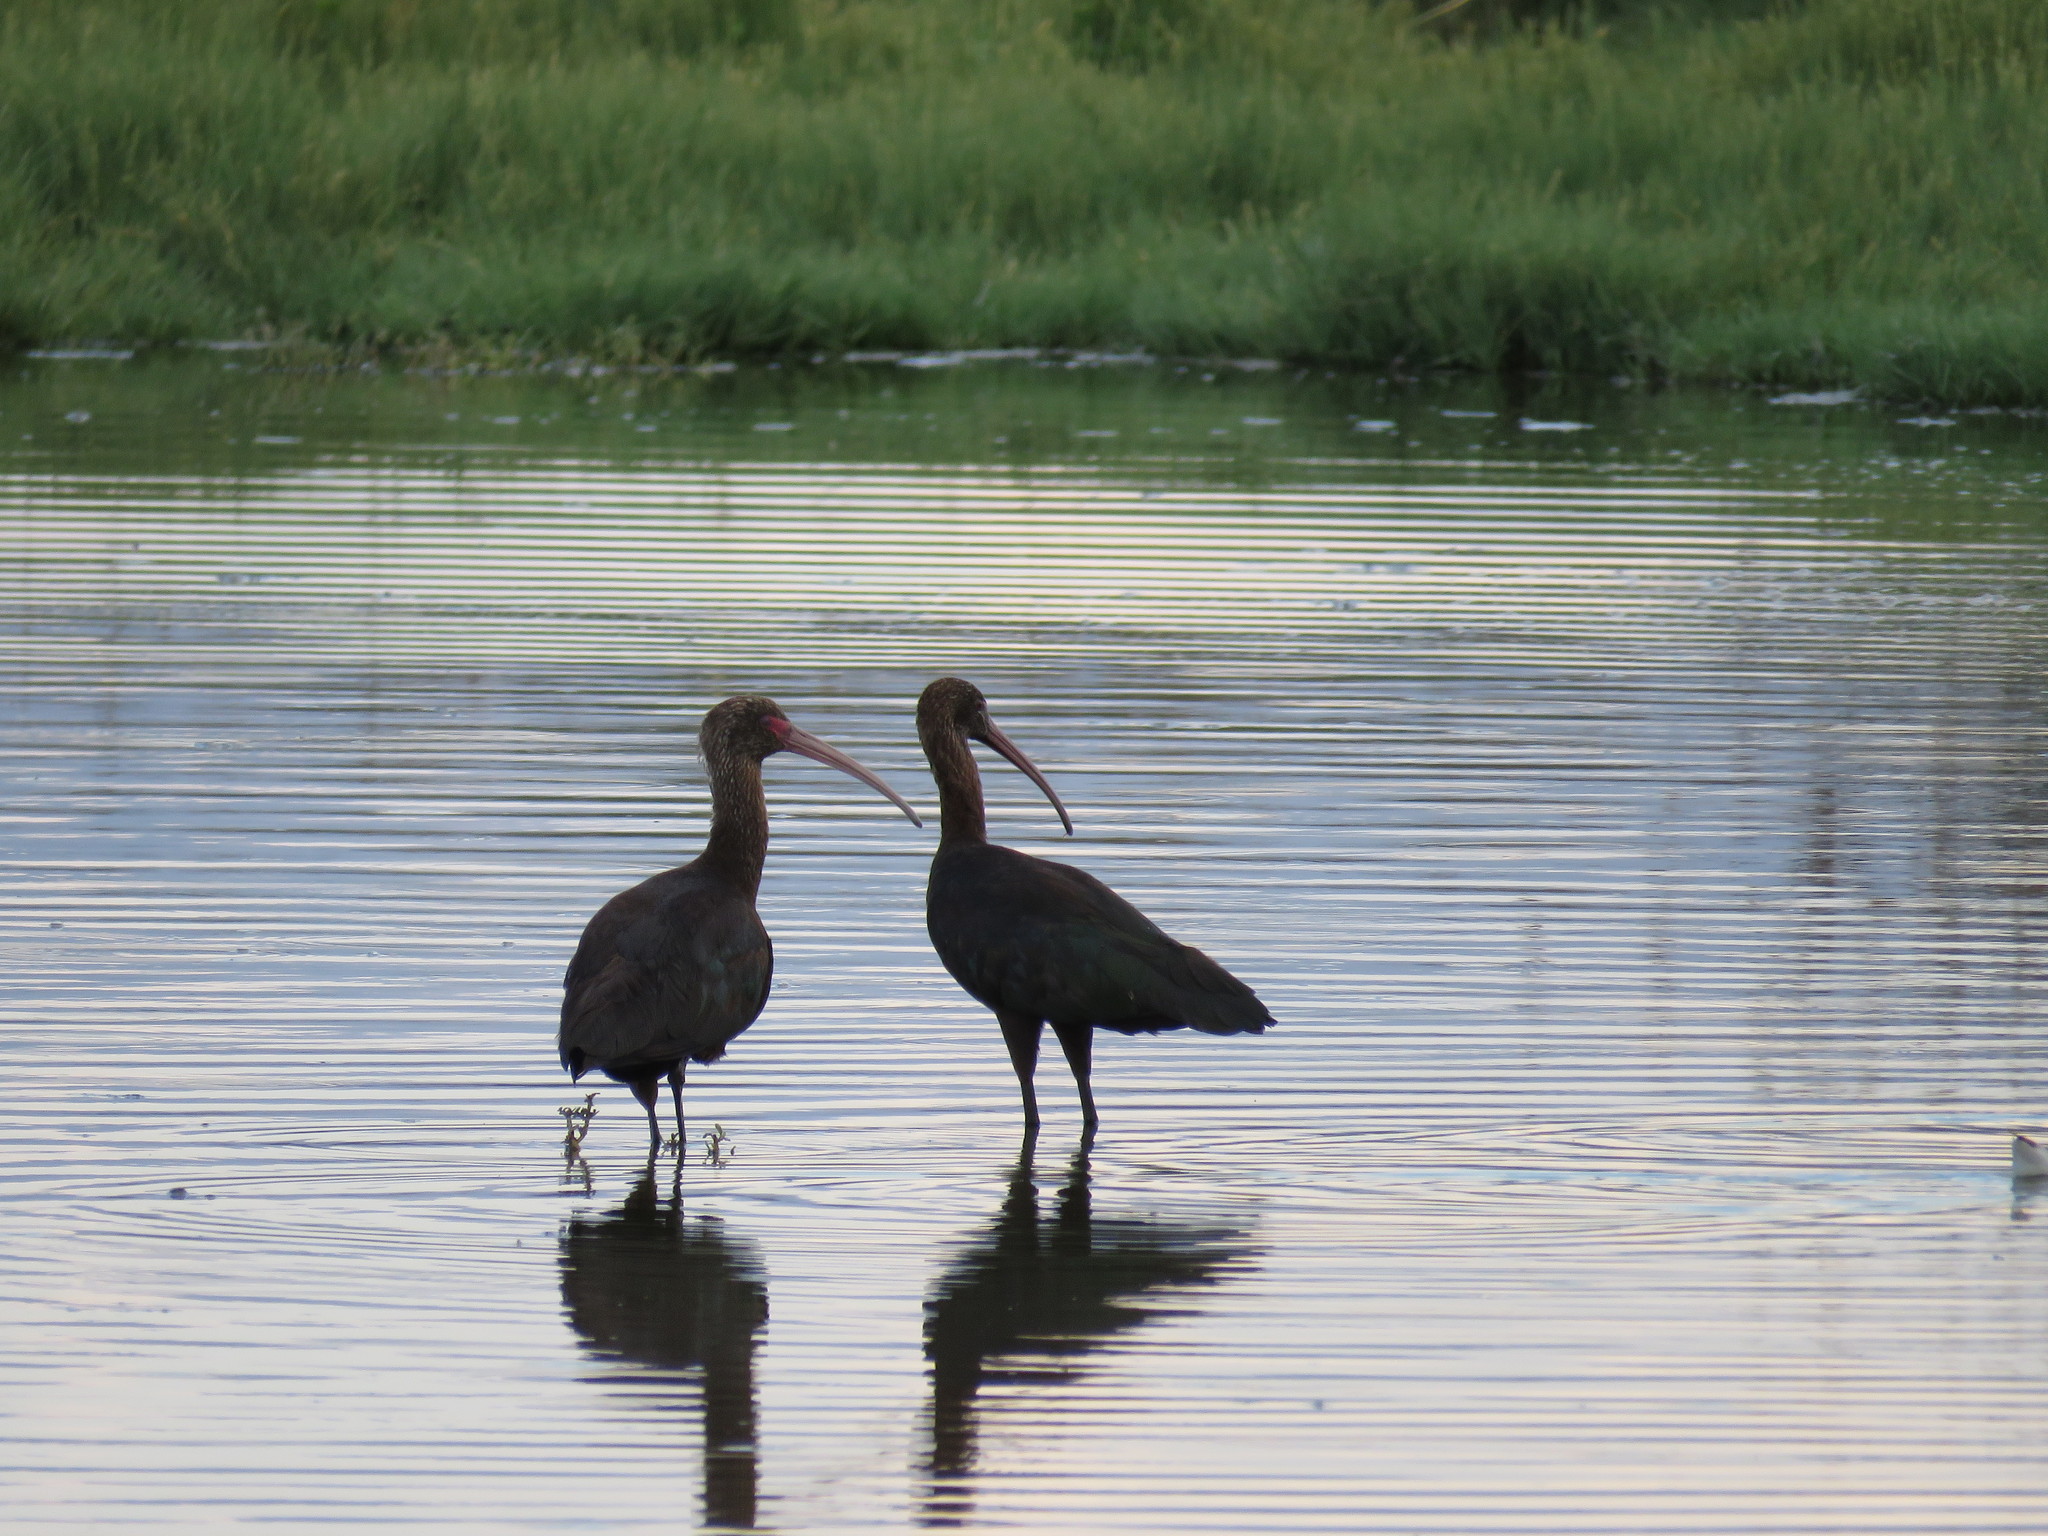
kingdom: Animalia
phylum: Chordata
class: Aves
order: Pelecaniformes
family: Threskiornithidae
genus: Plegadis
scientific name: Plegadis ridgwayi
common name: Puna ibis
